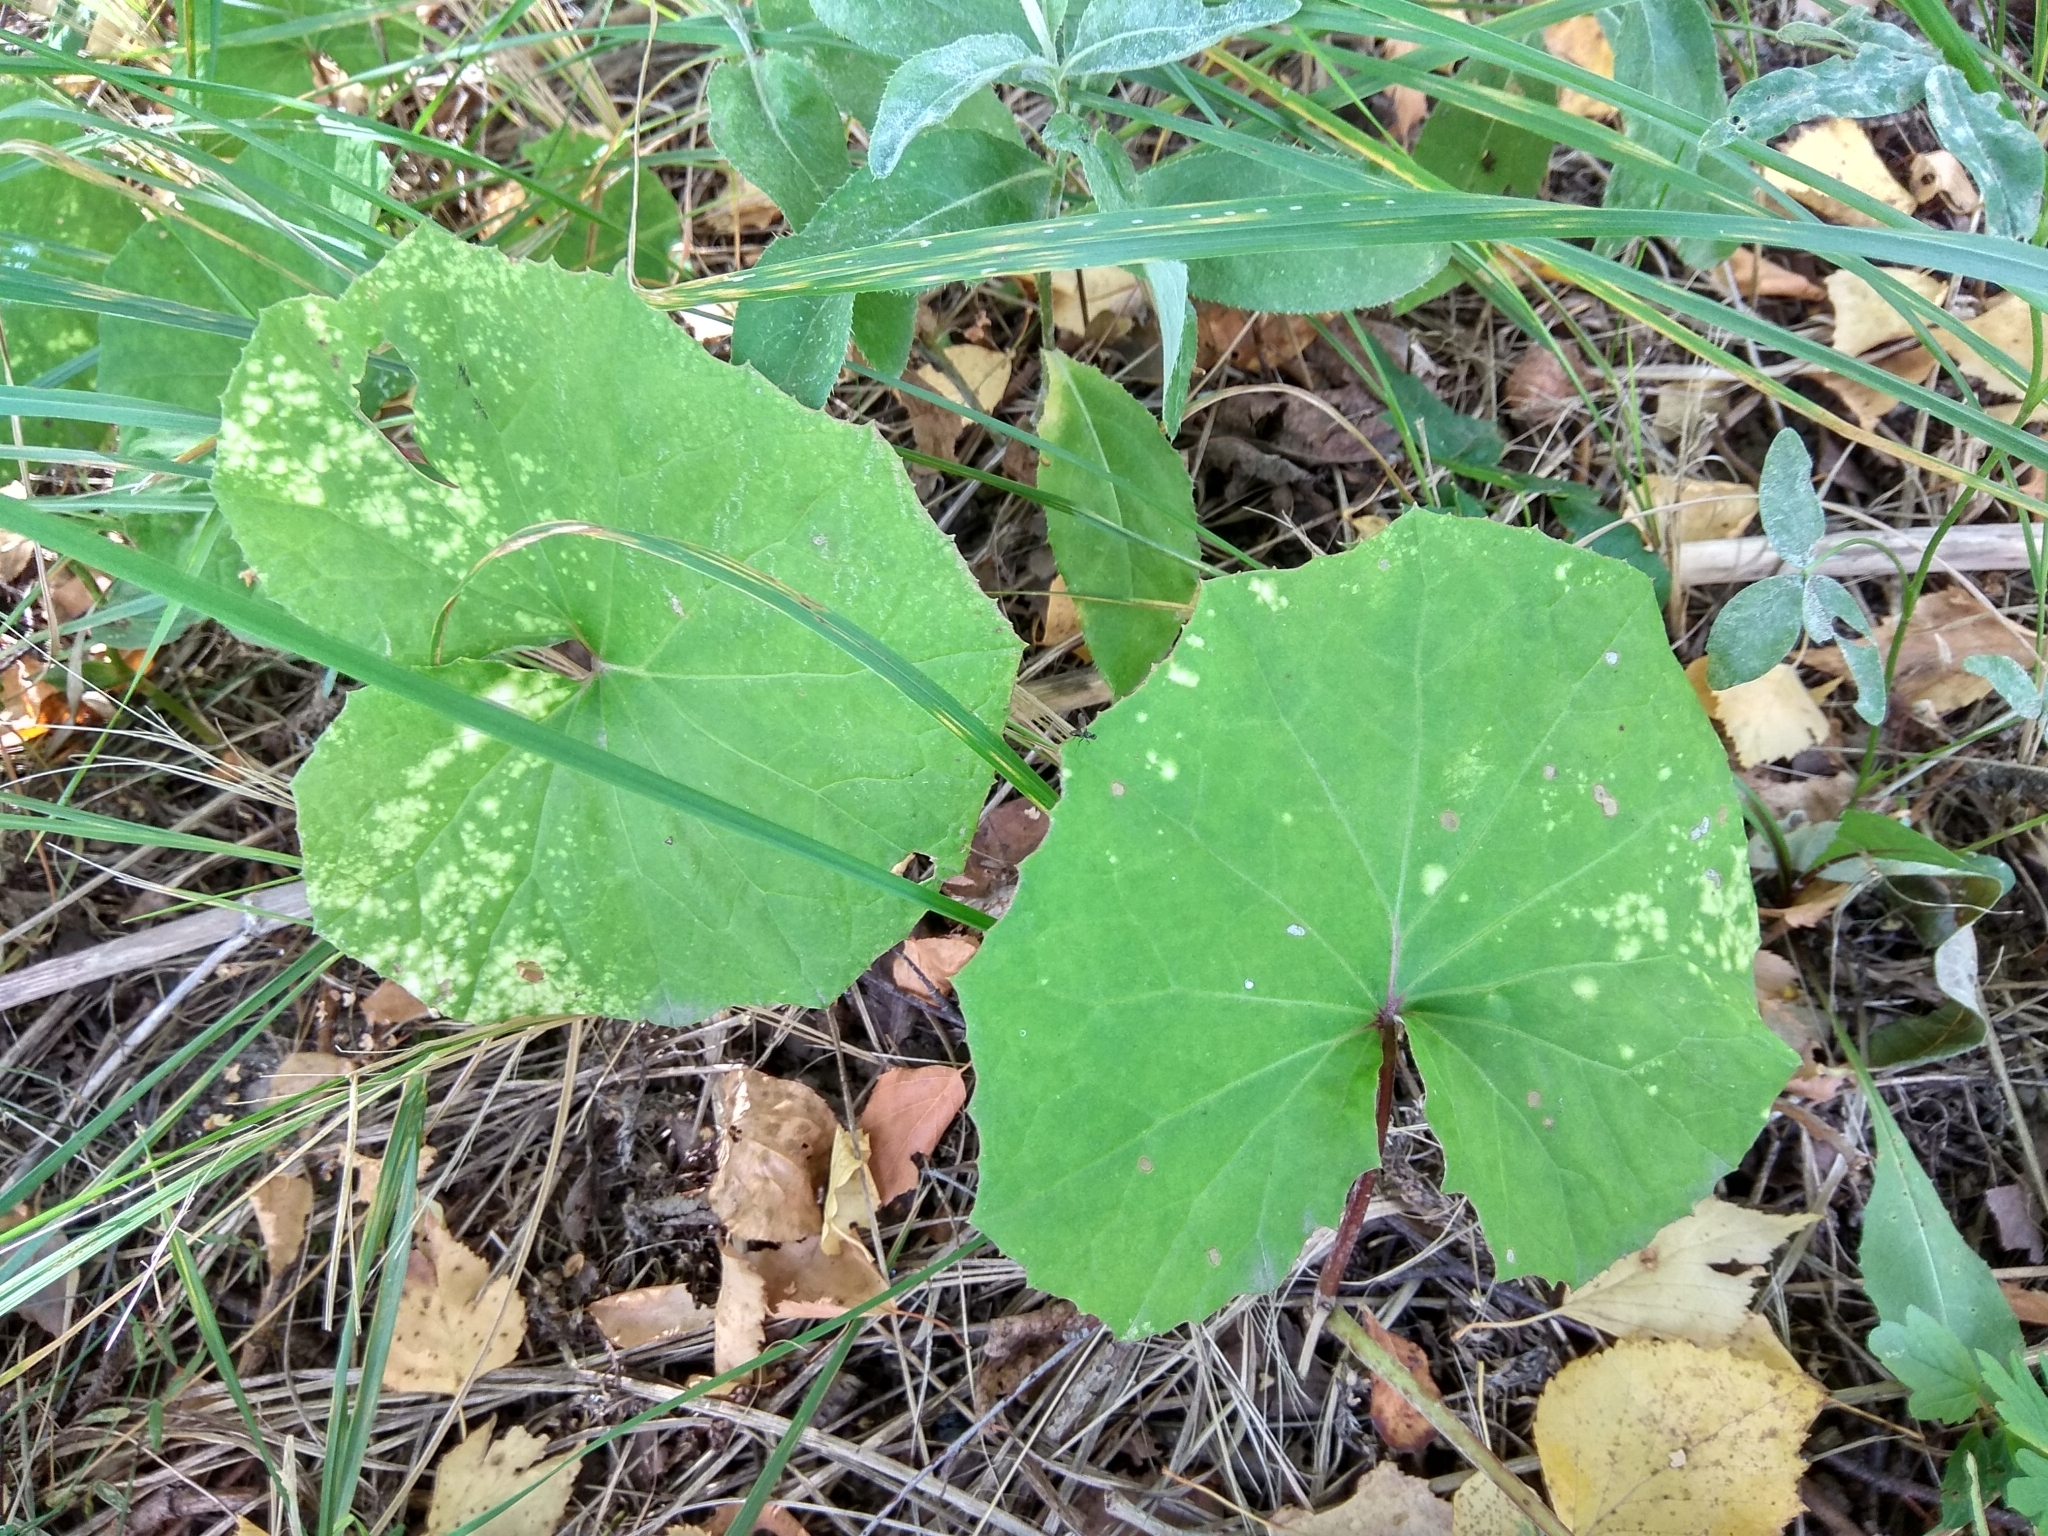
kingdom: Plantae
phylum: Tracheophyta
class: Magnoliopsida
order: Asterales
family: Asteraceae
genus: Tussilago
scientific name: Tussilago farfara
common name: Coltsfoot
